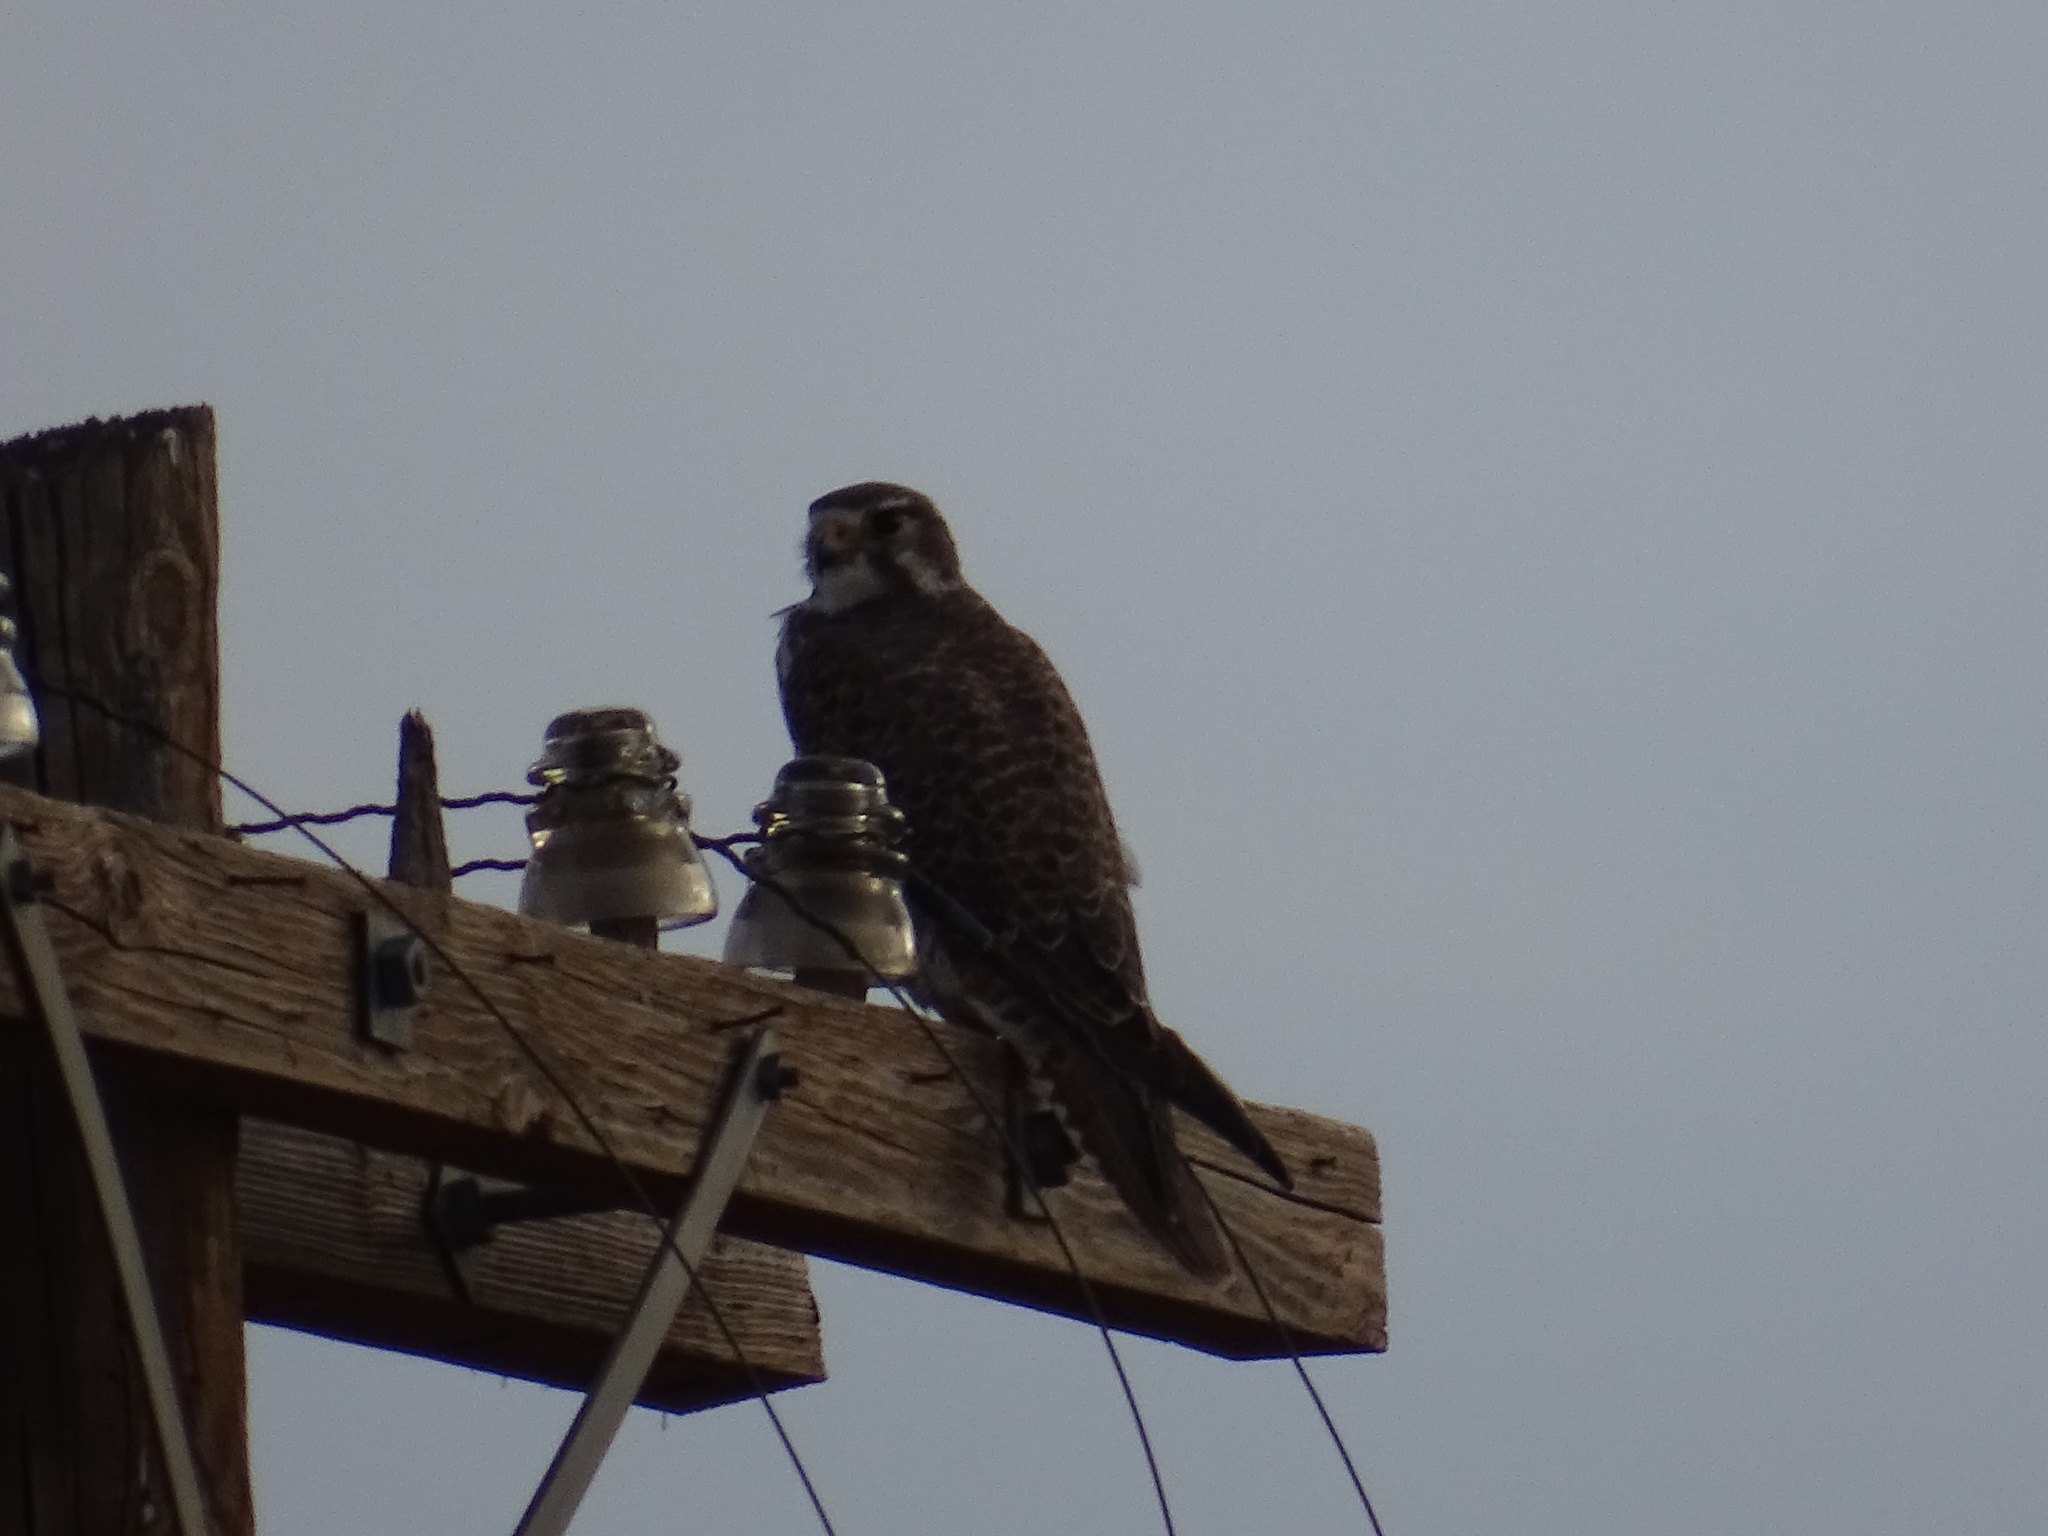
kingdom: Animalia
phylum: Chordata
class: Aves
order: Falconiformes
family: Falconidae
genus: Falco
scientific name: Falco mexicanus
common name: Prairie falcon
